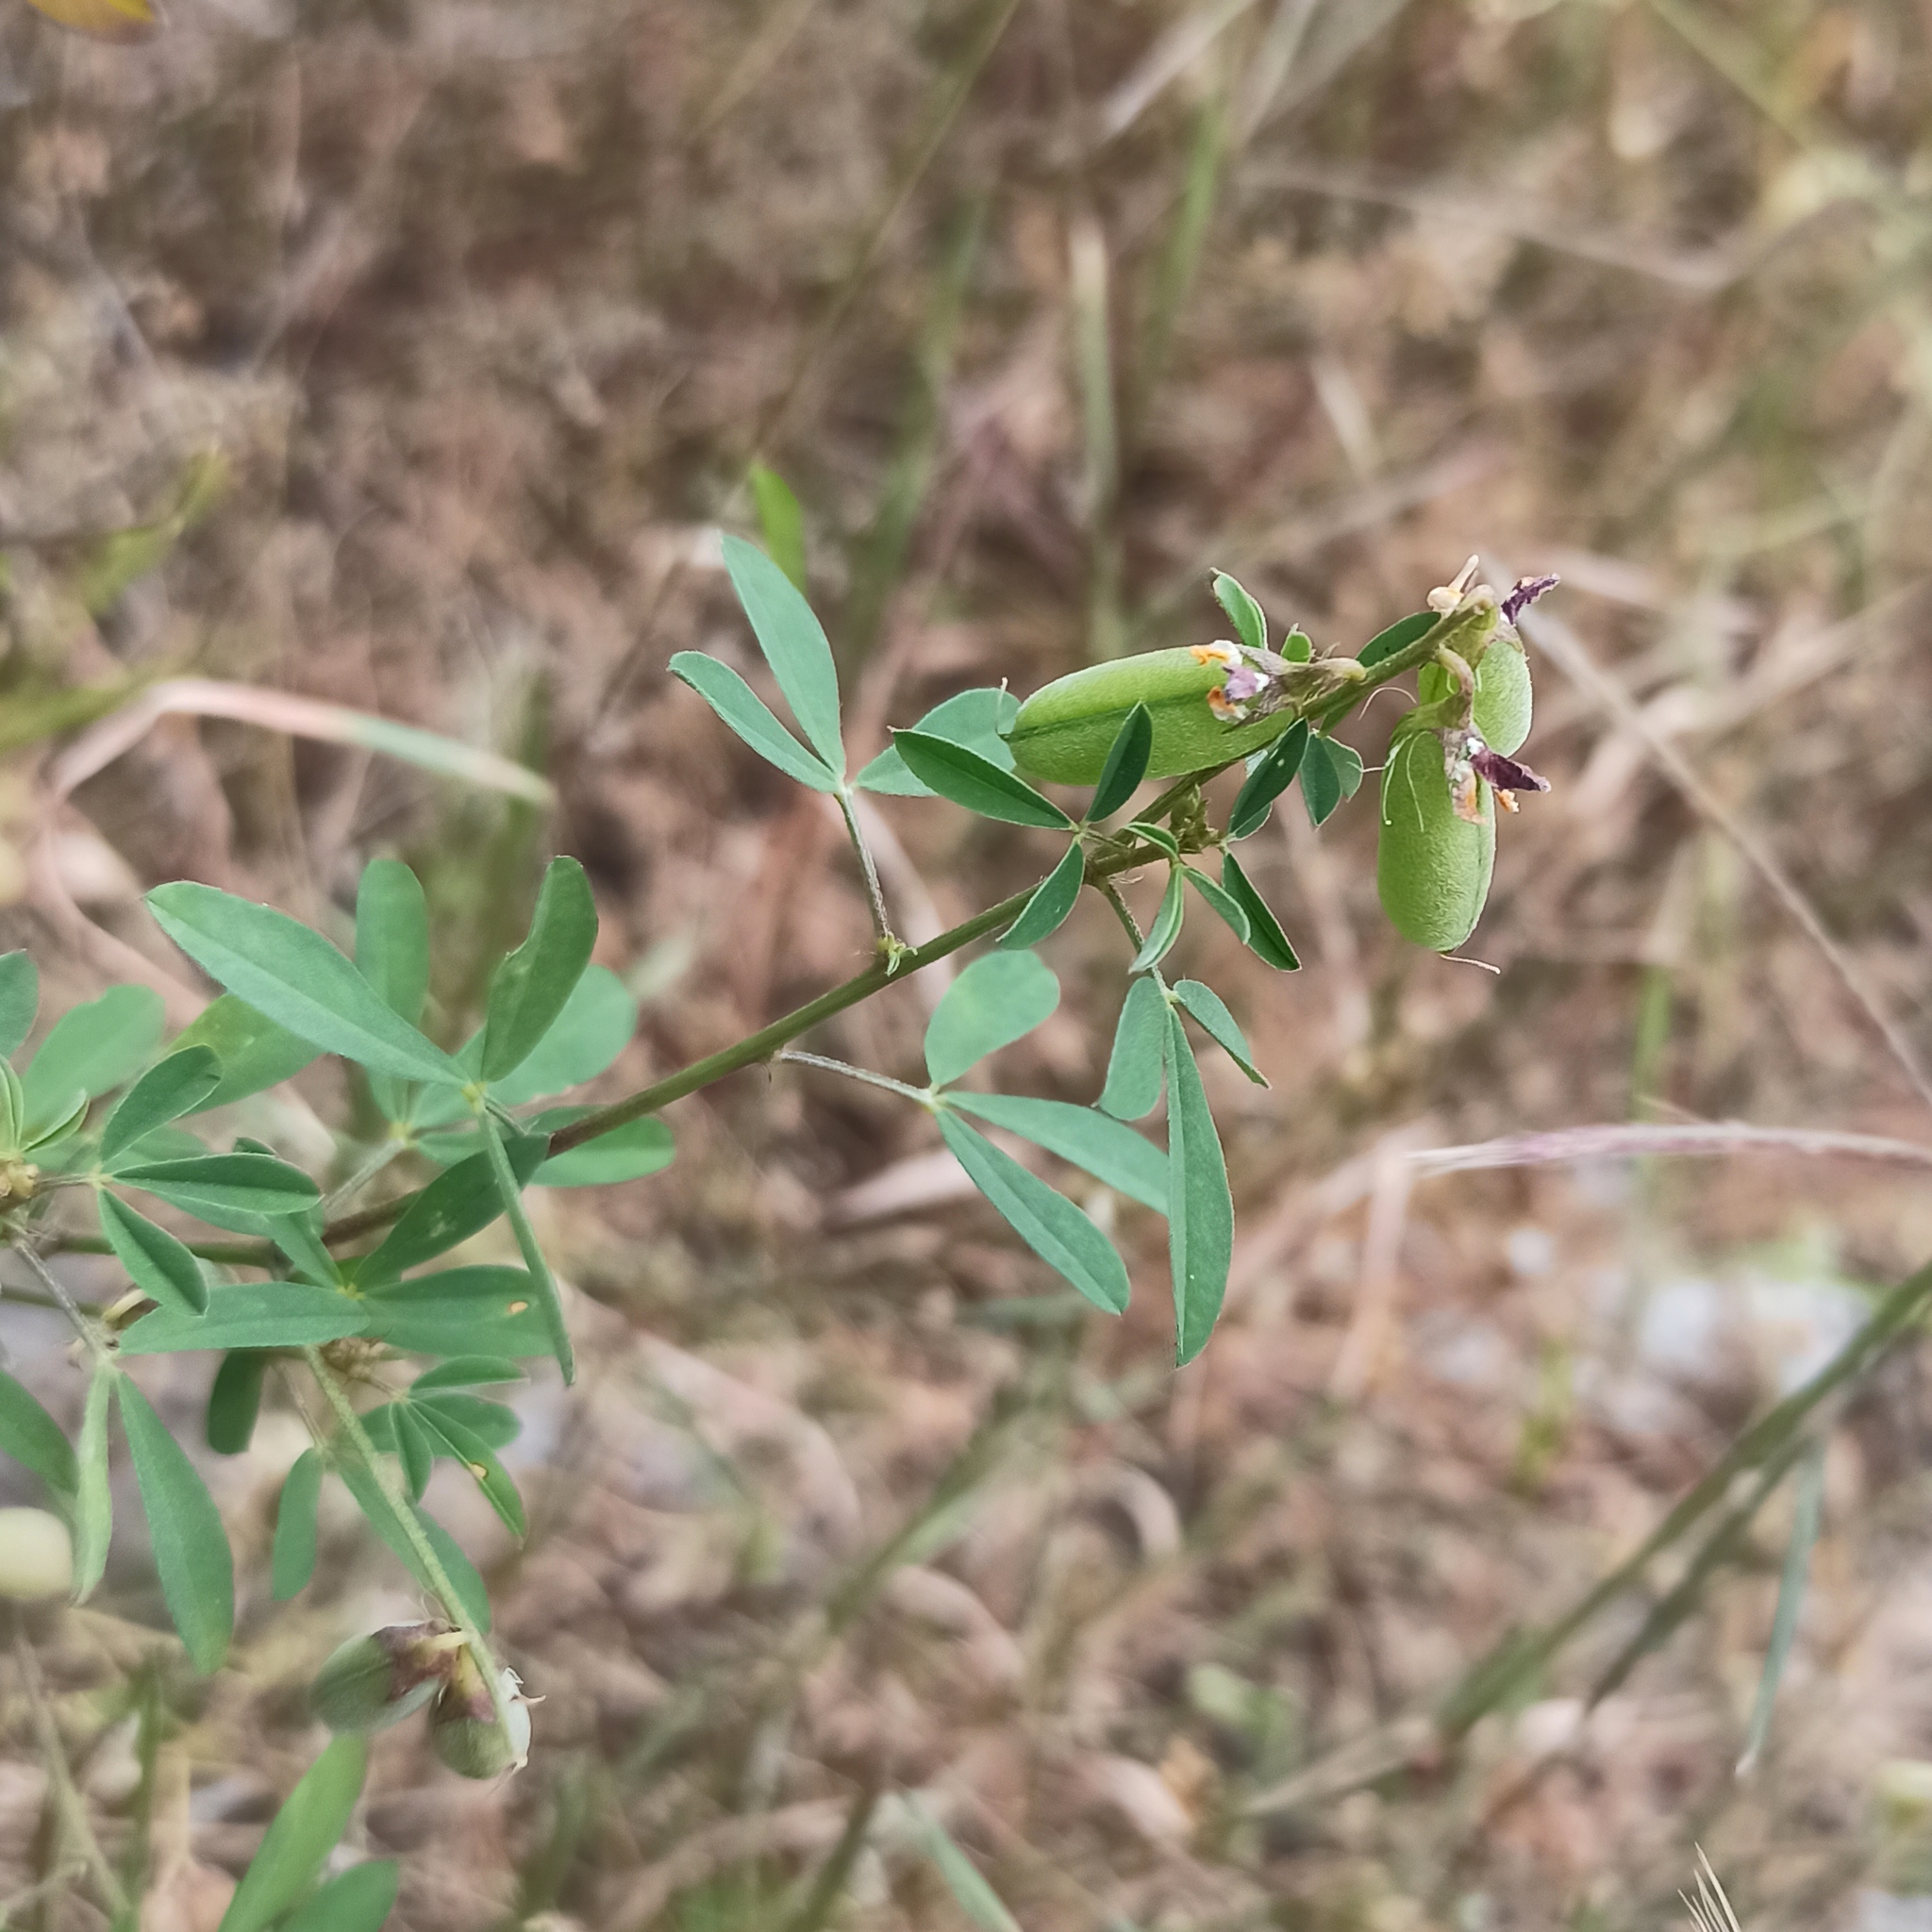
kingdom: Plantae
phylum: Tracheophyta
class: Magnoliopsida
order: Fabales
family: Fabaceae
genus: Crotalaria
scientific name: Crotalaria pumila
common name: Low rattlebox
